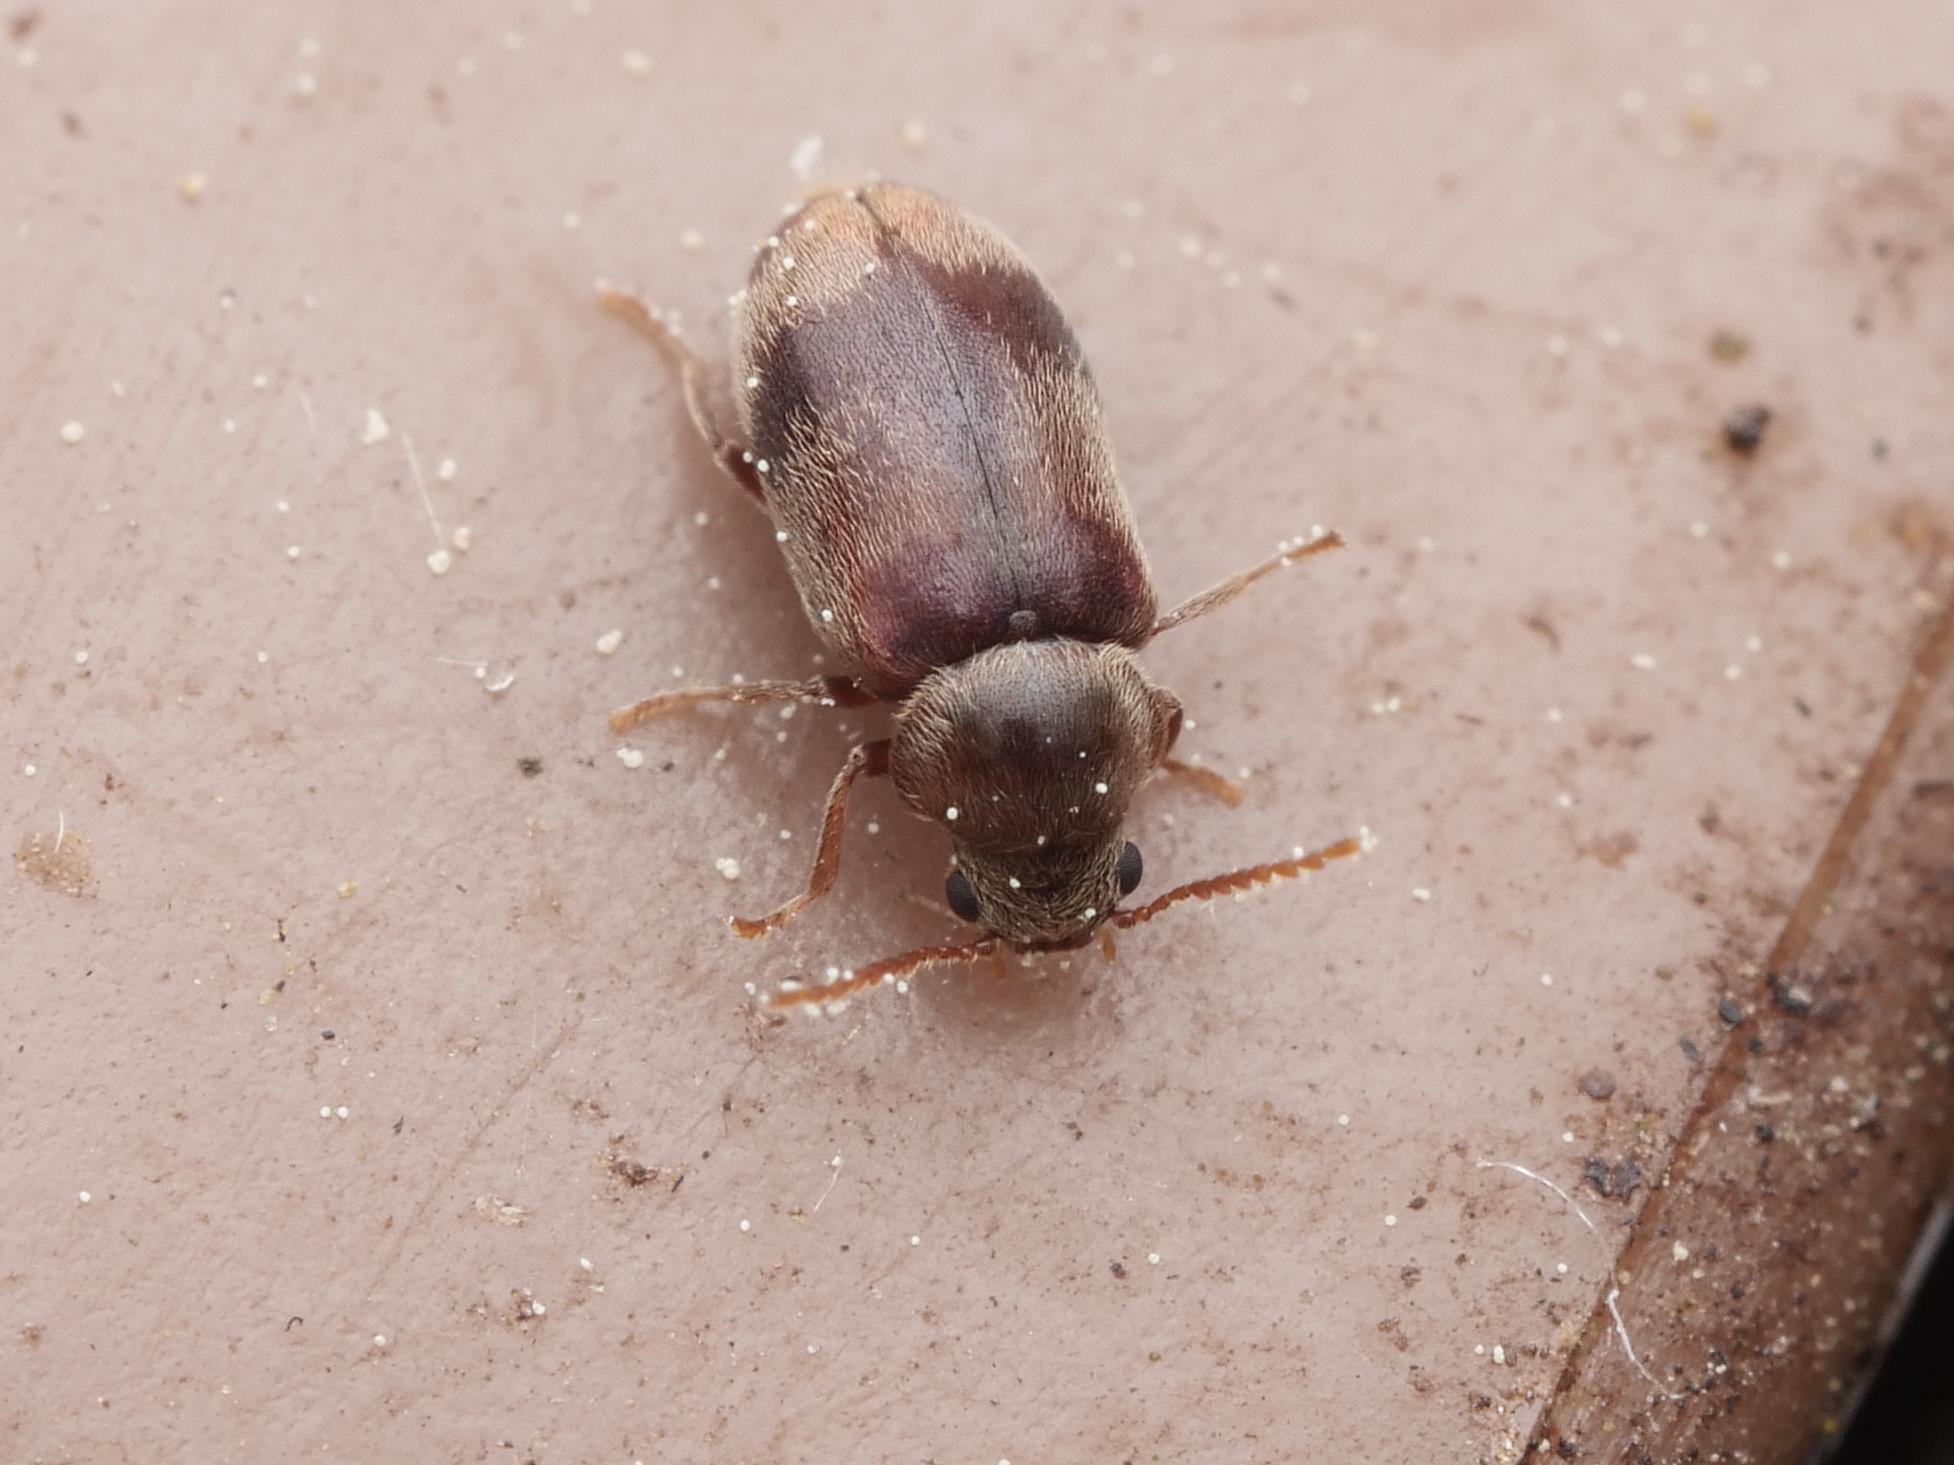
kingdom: Animalia
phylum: Arthropoda
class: Insecta
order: Coleoptera
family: Ptinidae
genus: Ochina
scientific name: Ochina ptinoides
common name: Ivy boring beetle
